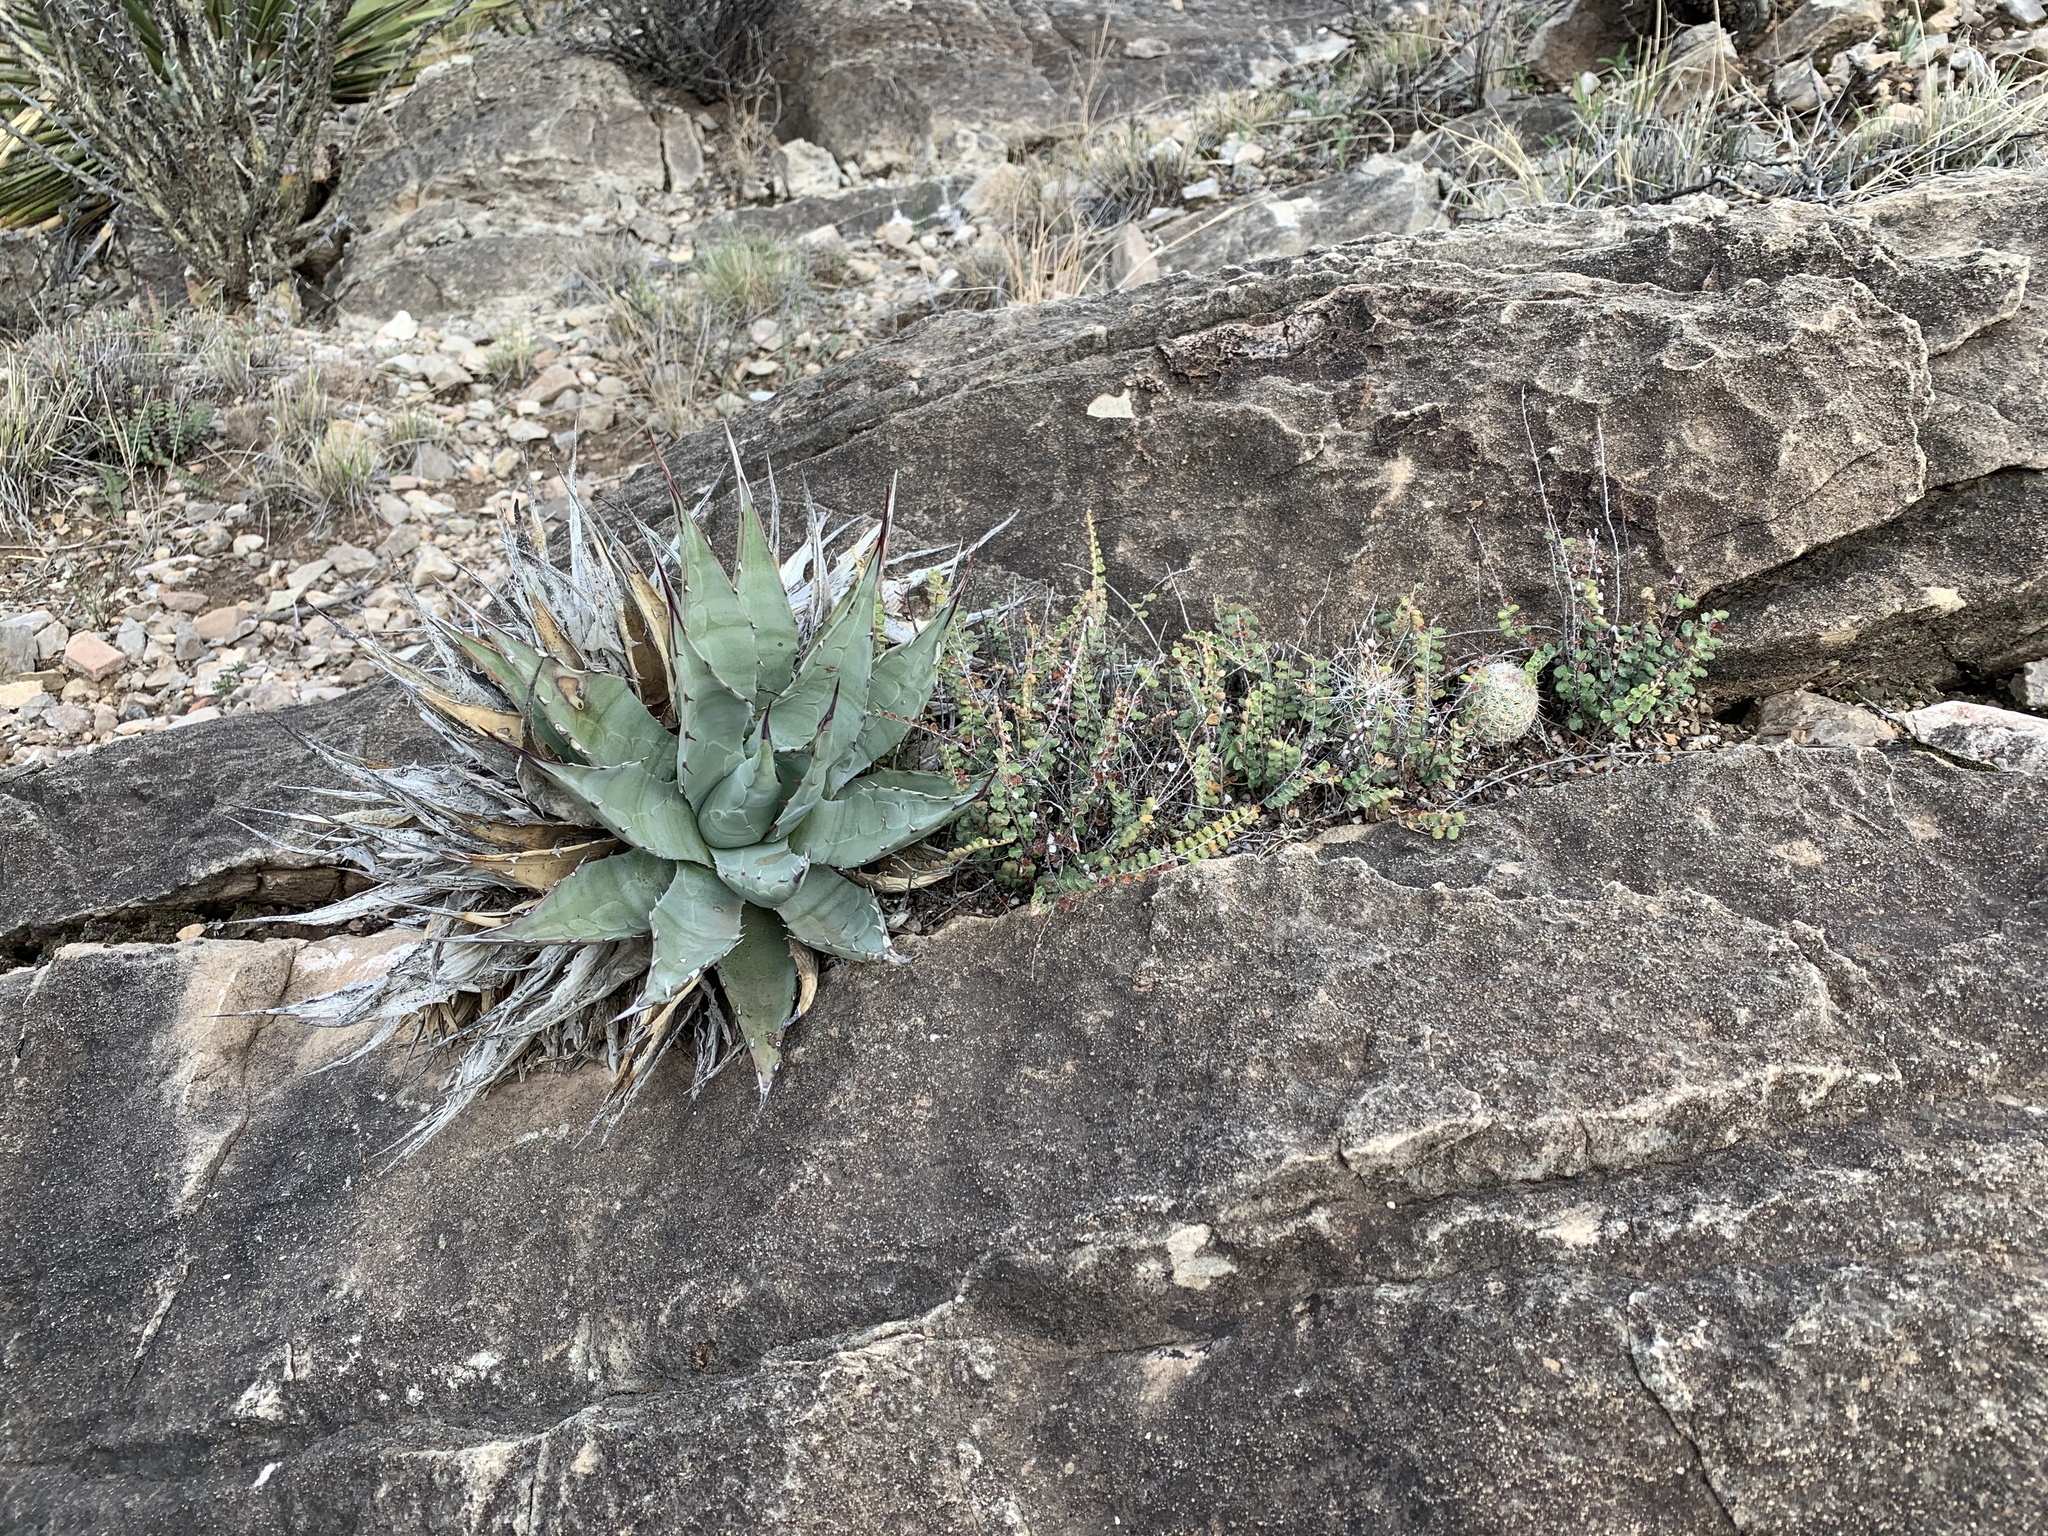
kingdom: Plantae
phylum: Tracheophyta
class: Liliopsida
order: Asparagales
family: Asparagaceae
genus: Agave
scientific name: Agave parryi
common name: Parry's agave
